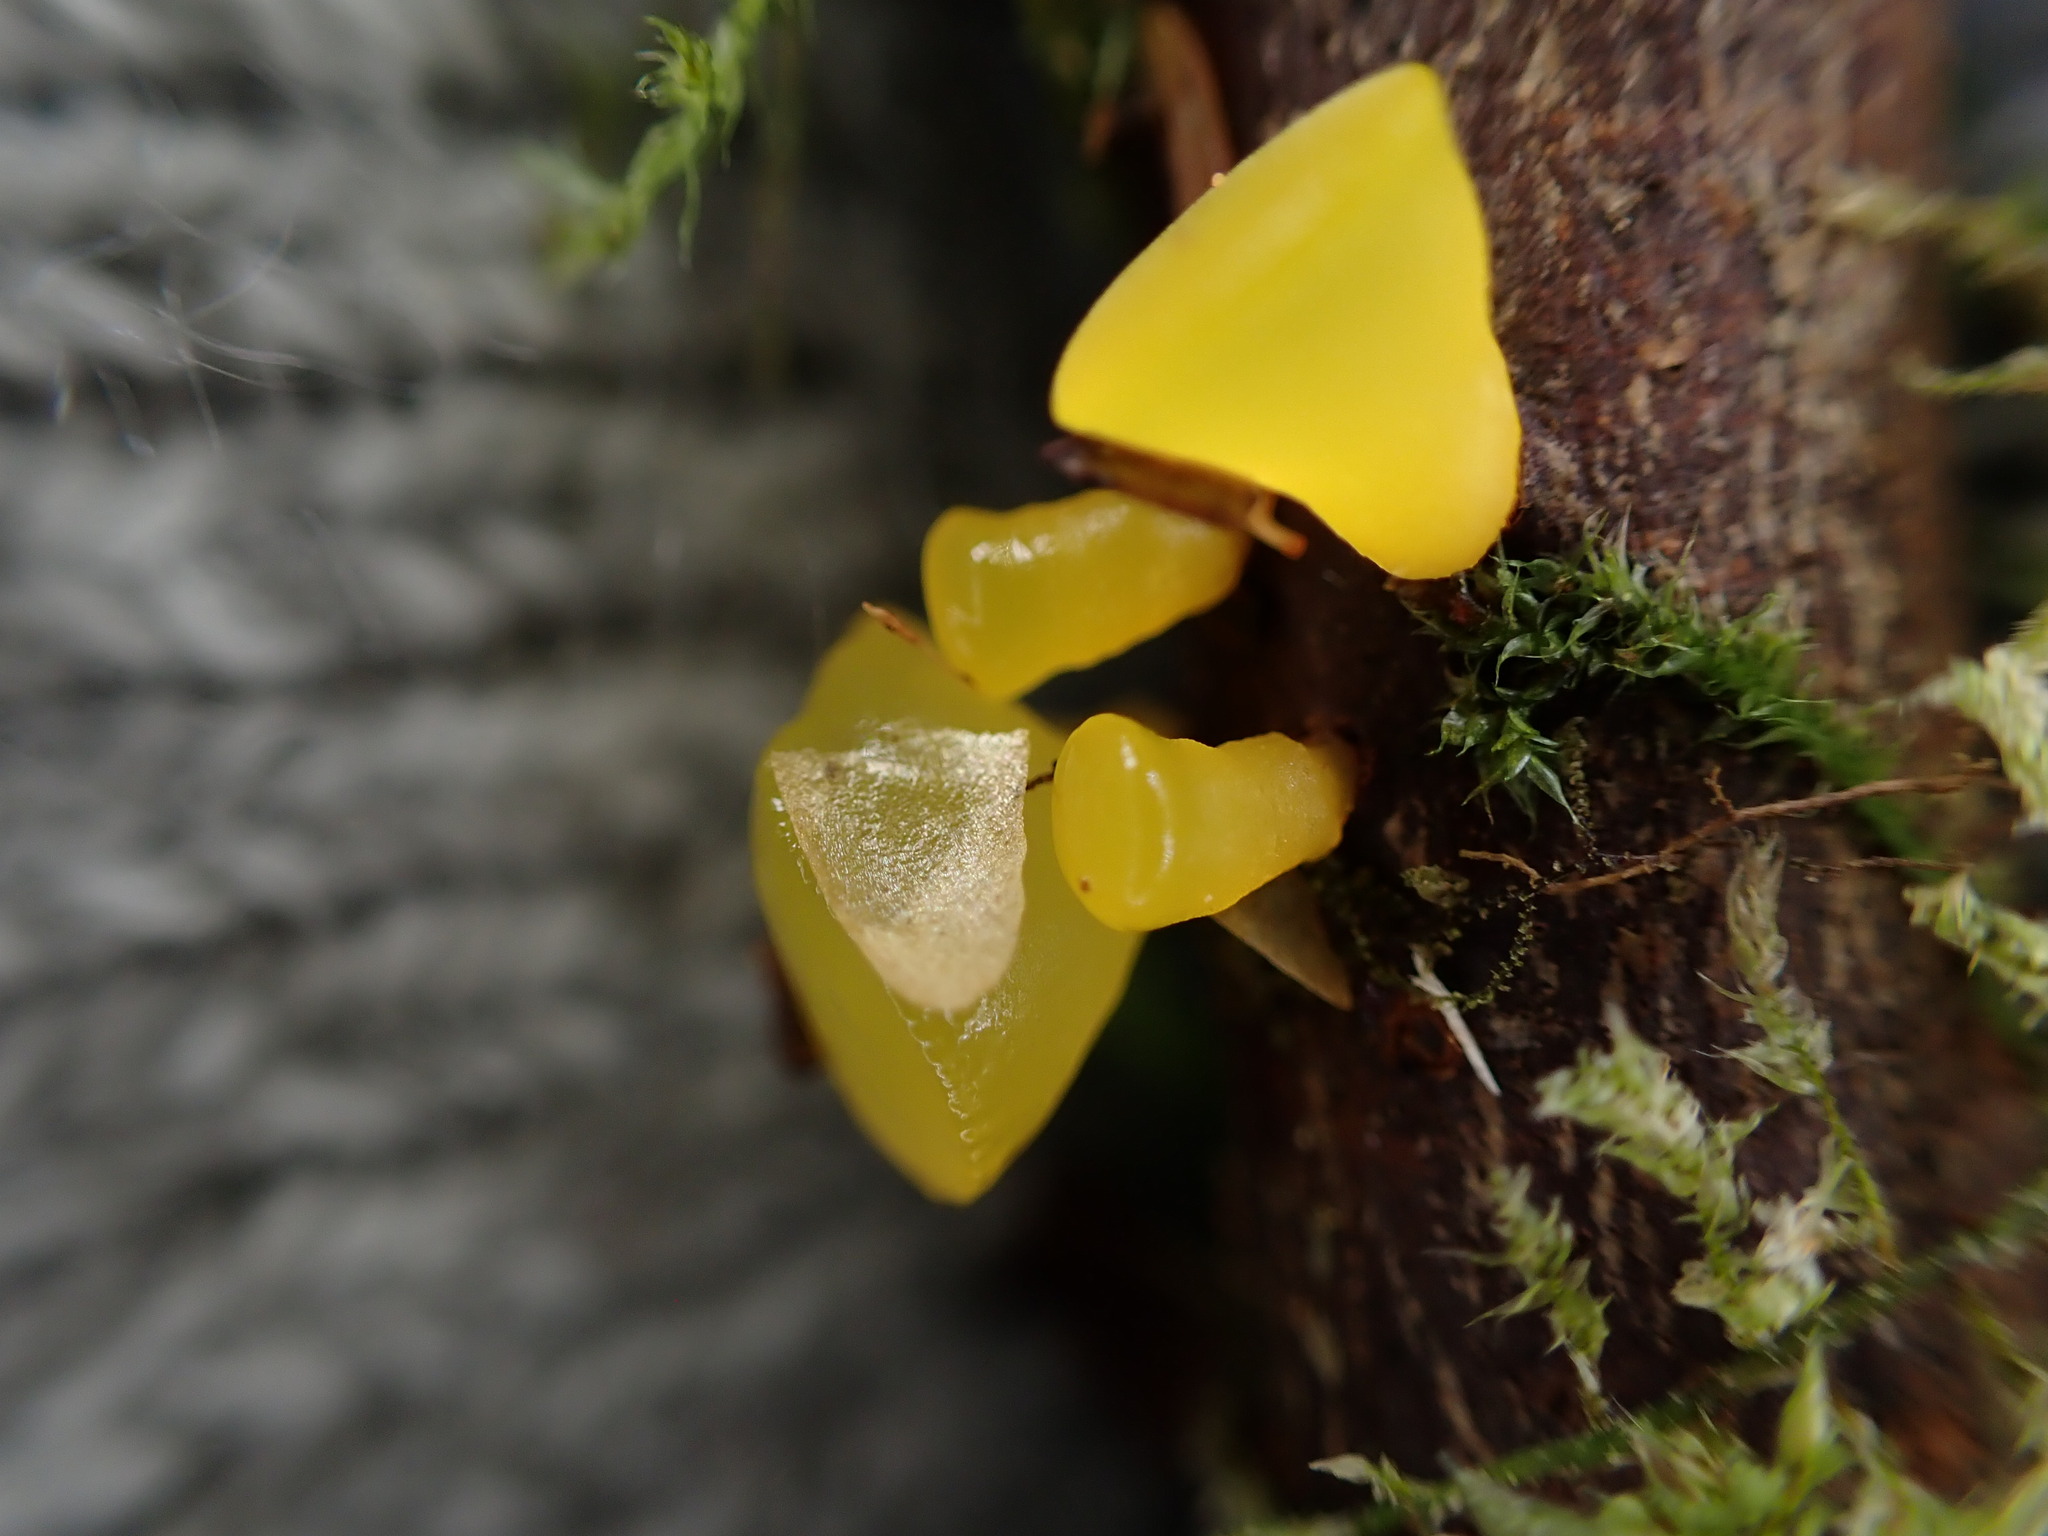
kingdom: Fungi
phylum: Basidiomycota
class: Dacrymycetes
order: Dacrymycetales
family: Dacrymycetaceae
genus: Guepiniopsis
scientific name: Guepiniopsis alpina
